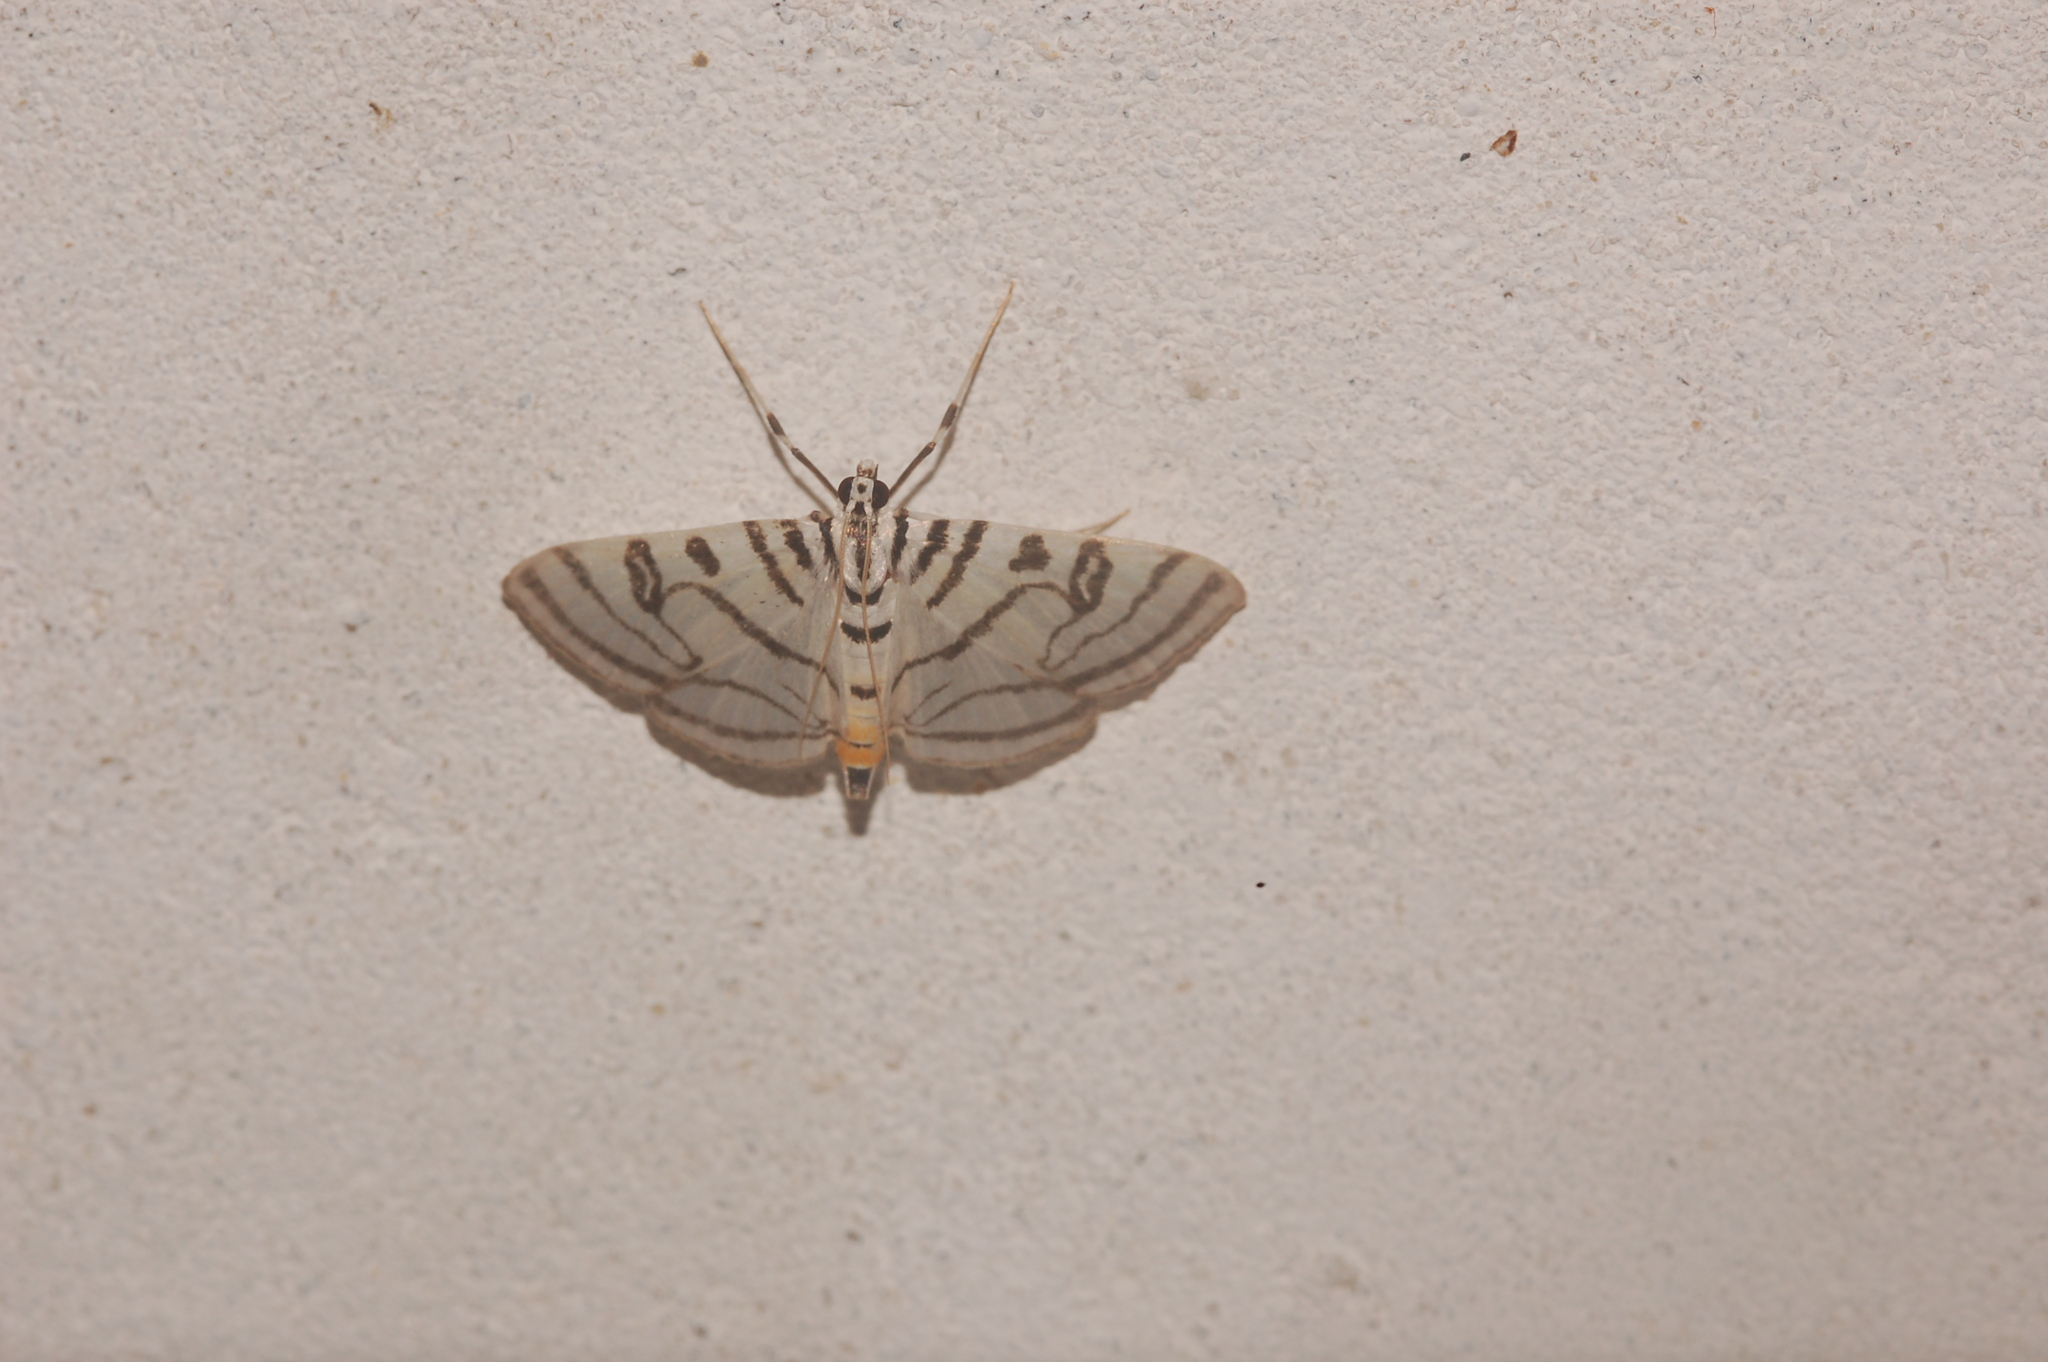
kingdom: Animalia
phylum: Arthropoda
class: Insecta
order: Lepidoptera
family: Crambidae
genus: Conchylodes
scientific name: Conchylodes ovulalis
